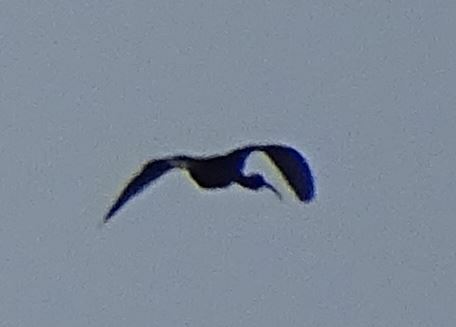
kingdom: Animalia
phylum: Chordata
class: Aves
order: Pelecaniformes
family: Threskiornithidae
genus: Plegadis
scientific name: Plegadis falcinellus
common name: Glossy ibis
